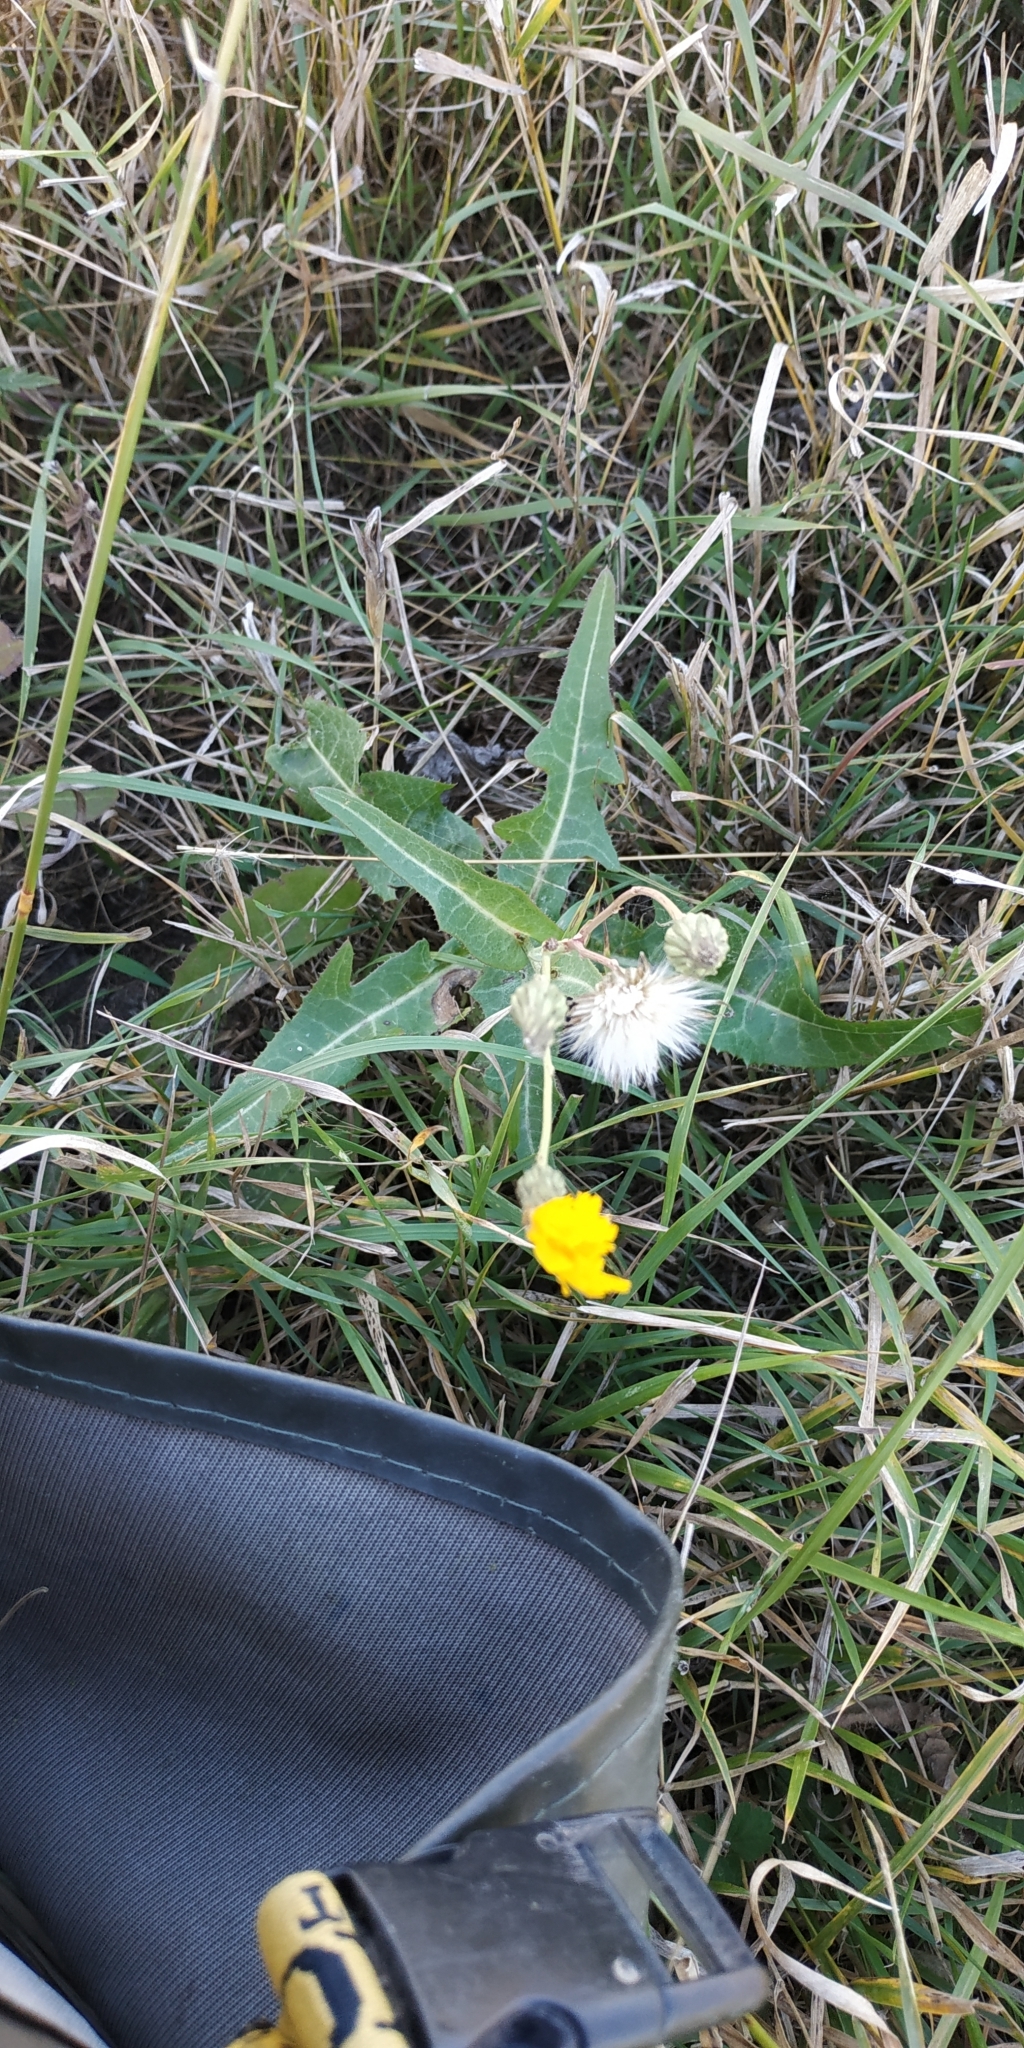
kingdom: Plantae
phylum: Tracheophyta
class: Magnoliopsida
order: Asterales
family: Asteraceae
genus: Sonchus
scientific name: Sonchus arvensis
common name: Perennial sow-thistle
